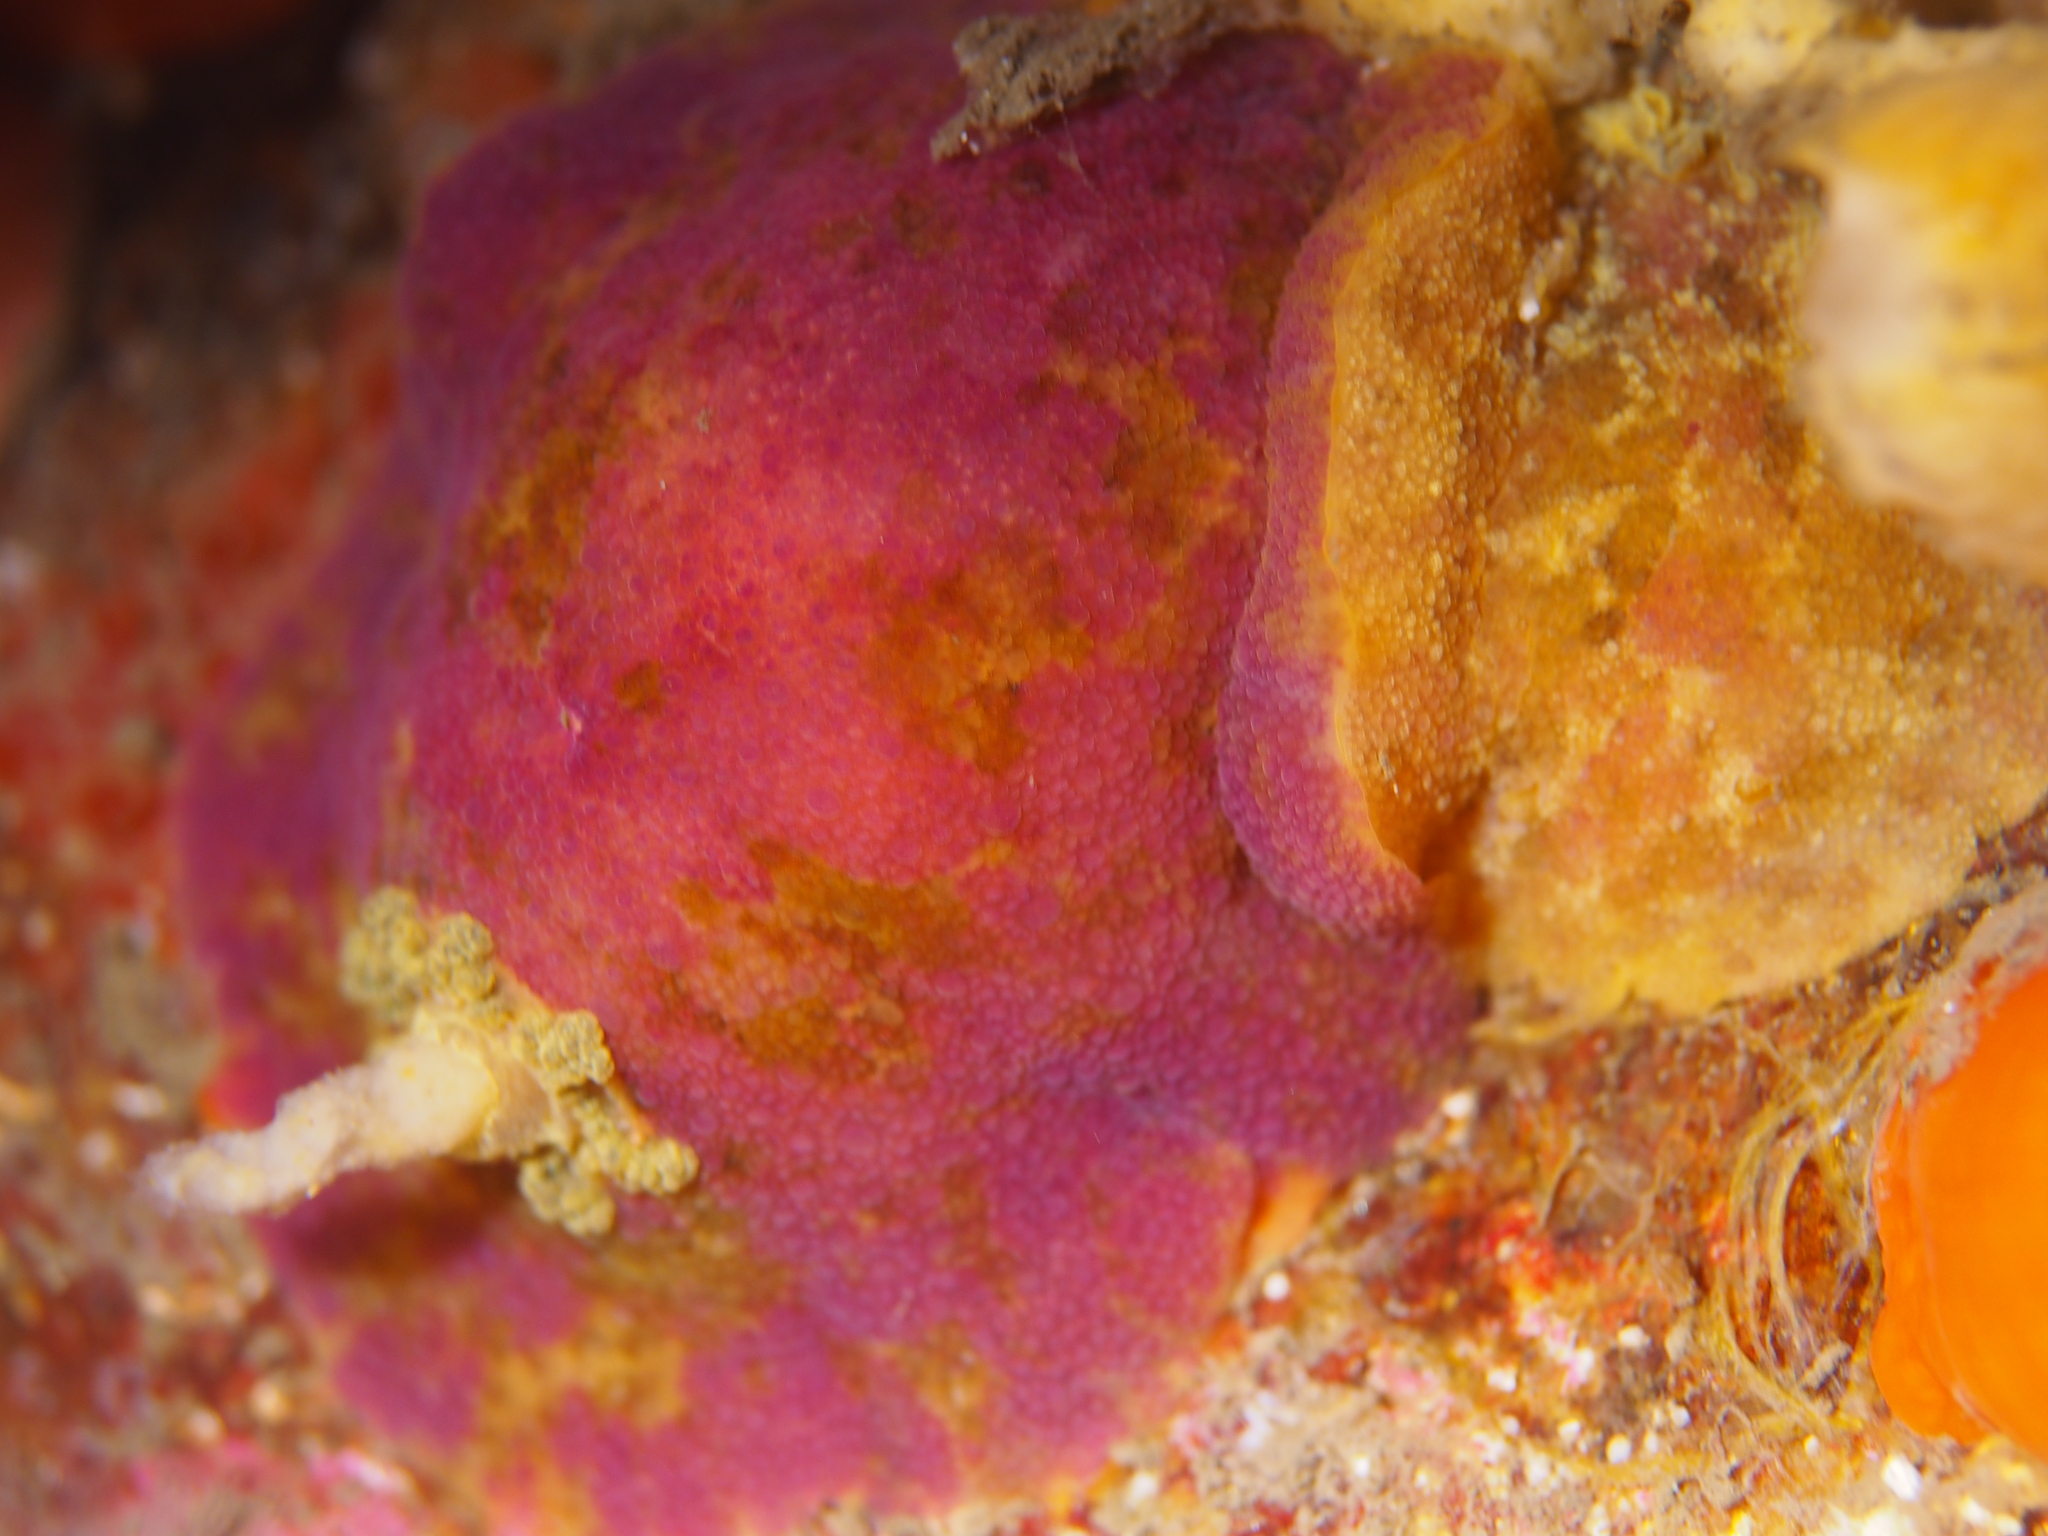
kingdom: Animalia
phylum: Mollusca
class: Gastropoda
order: Nudibranchia
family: Dorididae
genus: Doris
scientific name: Doris pseudoargus
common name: Sea lemon
